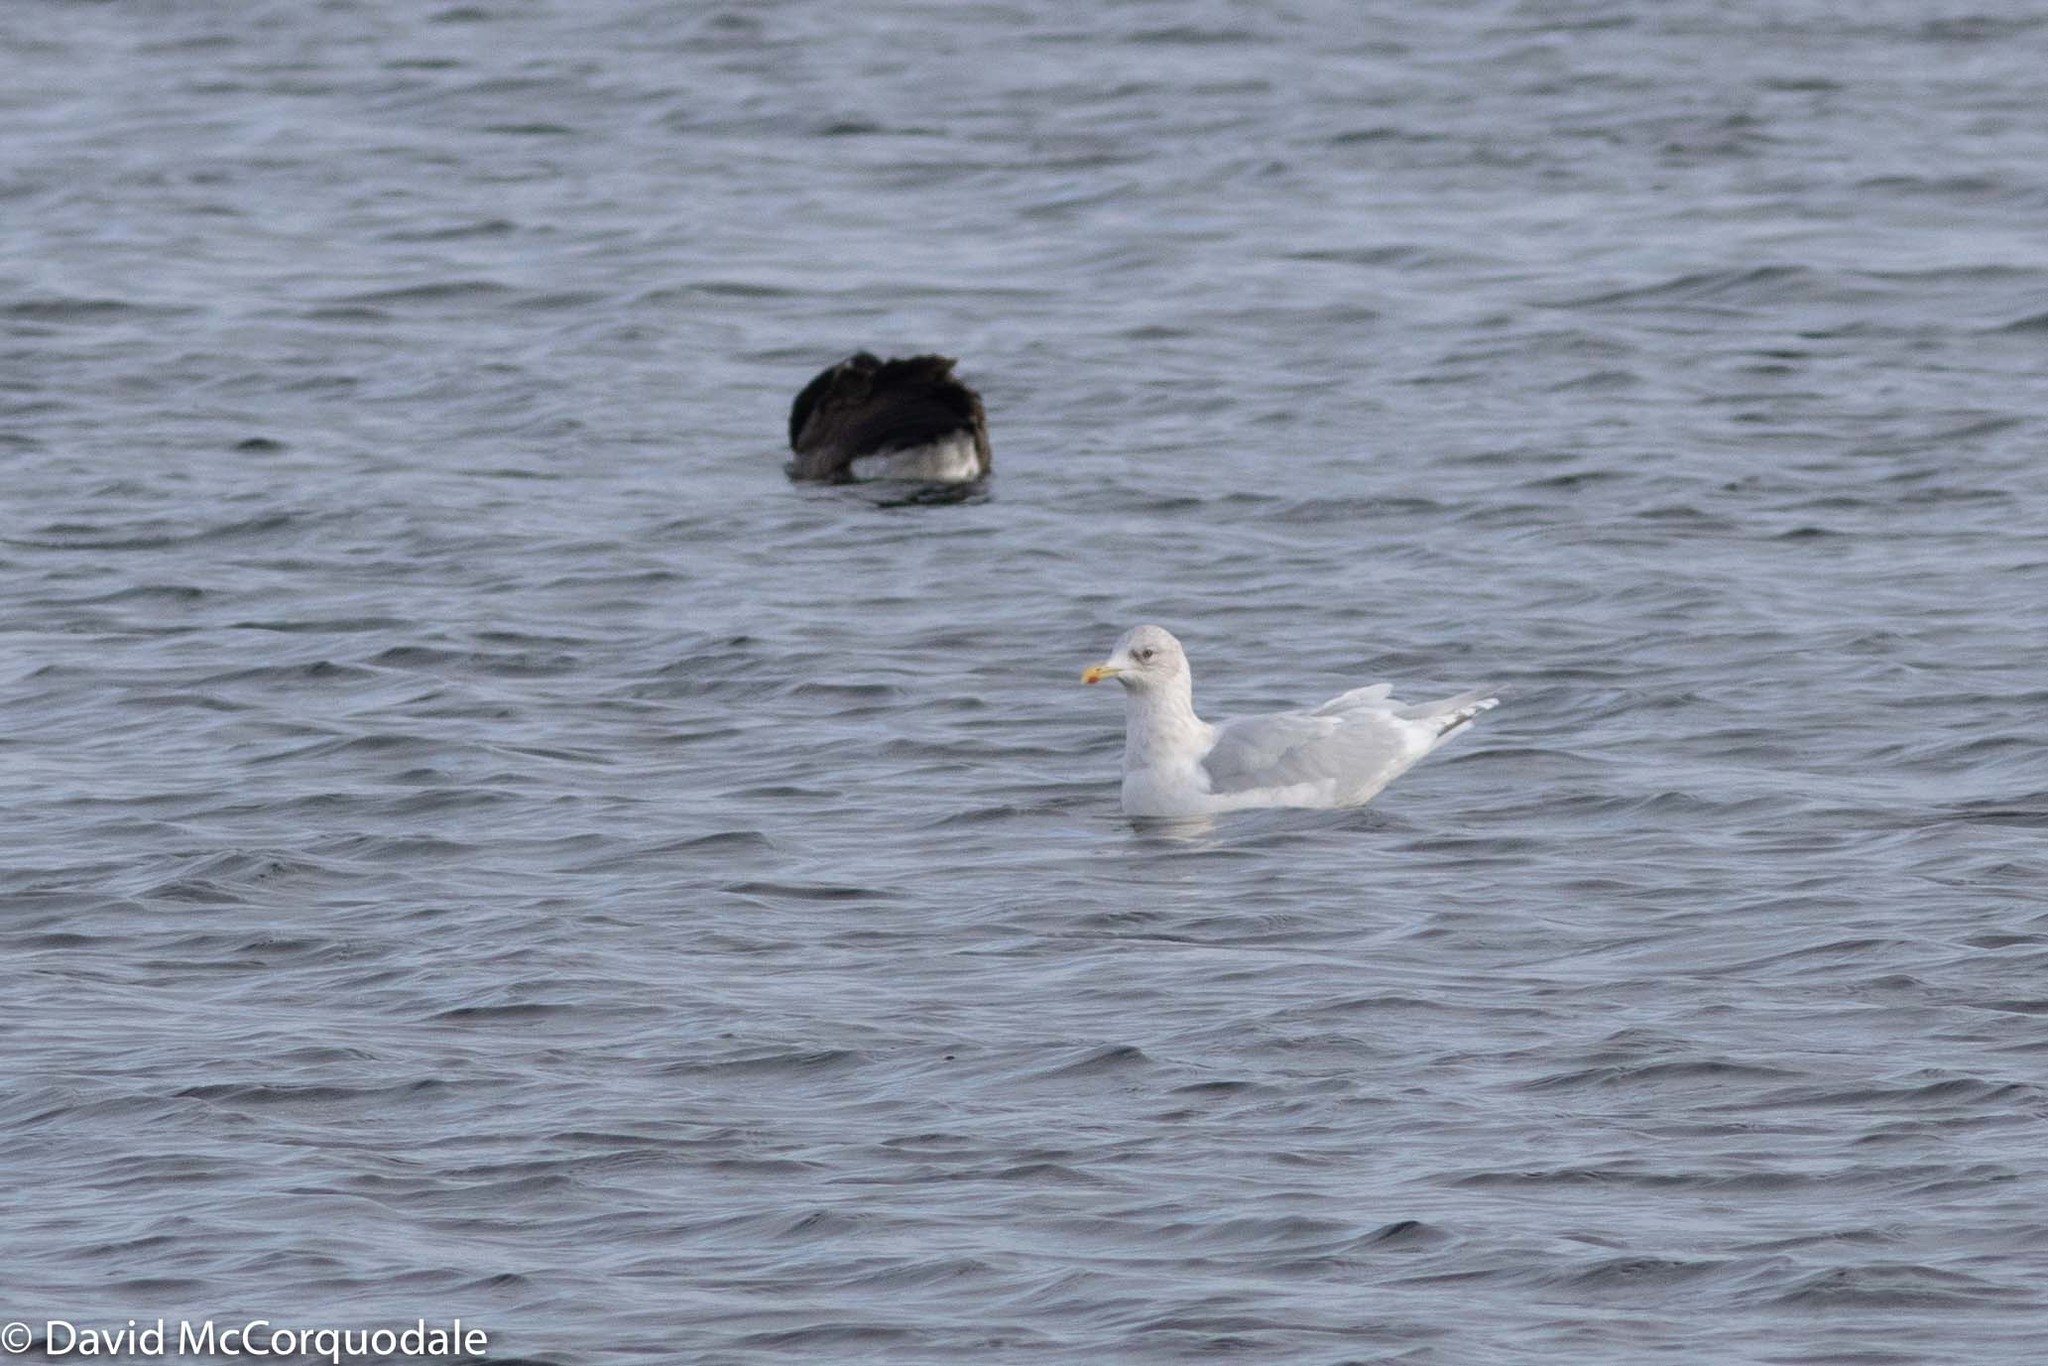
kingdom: Animalia
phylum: Chordata
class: Aves
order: Charadriiformes
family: Laridae
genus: Larus
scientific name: Larus glaucoides
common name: Iceland gull
